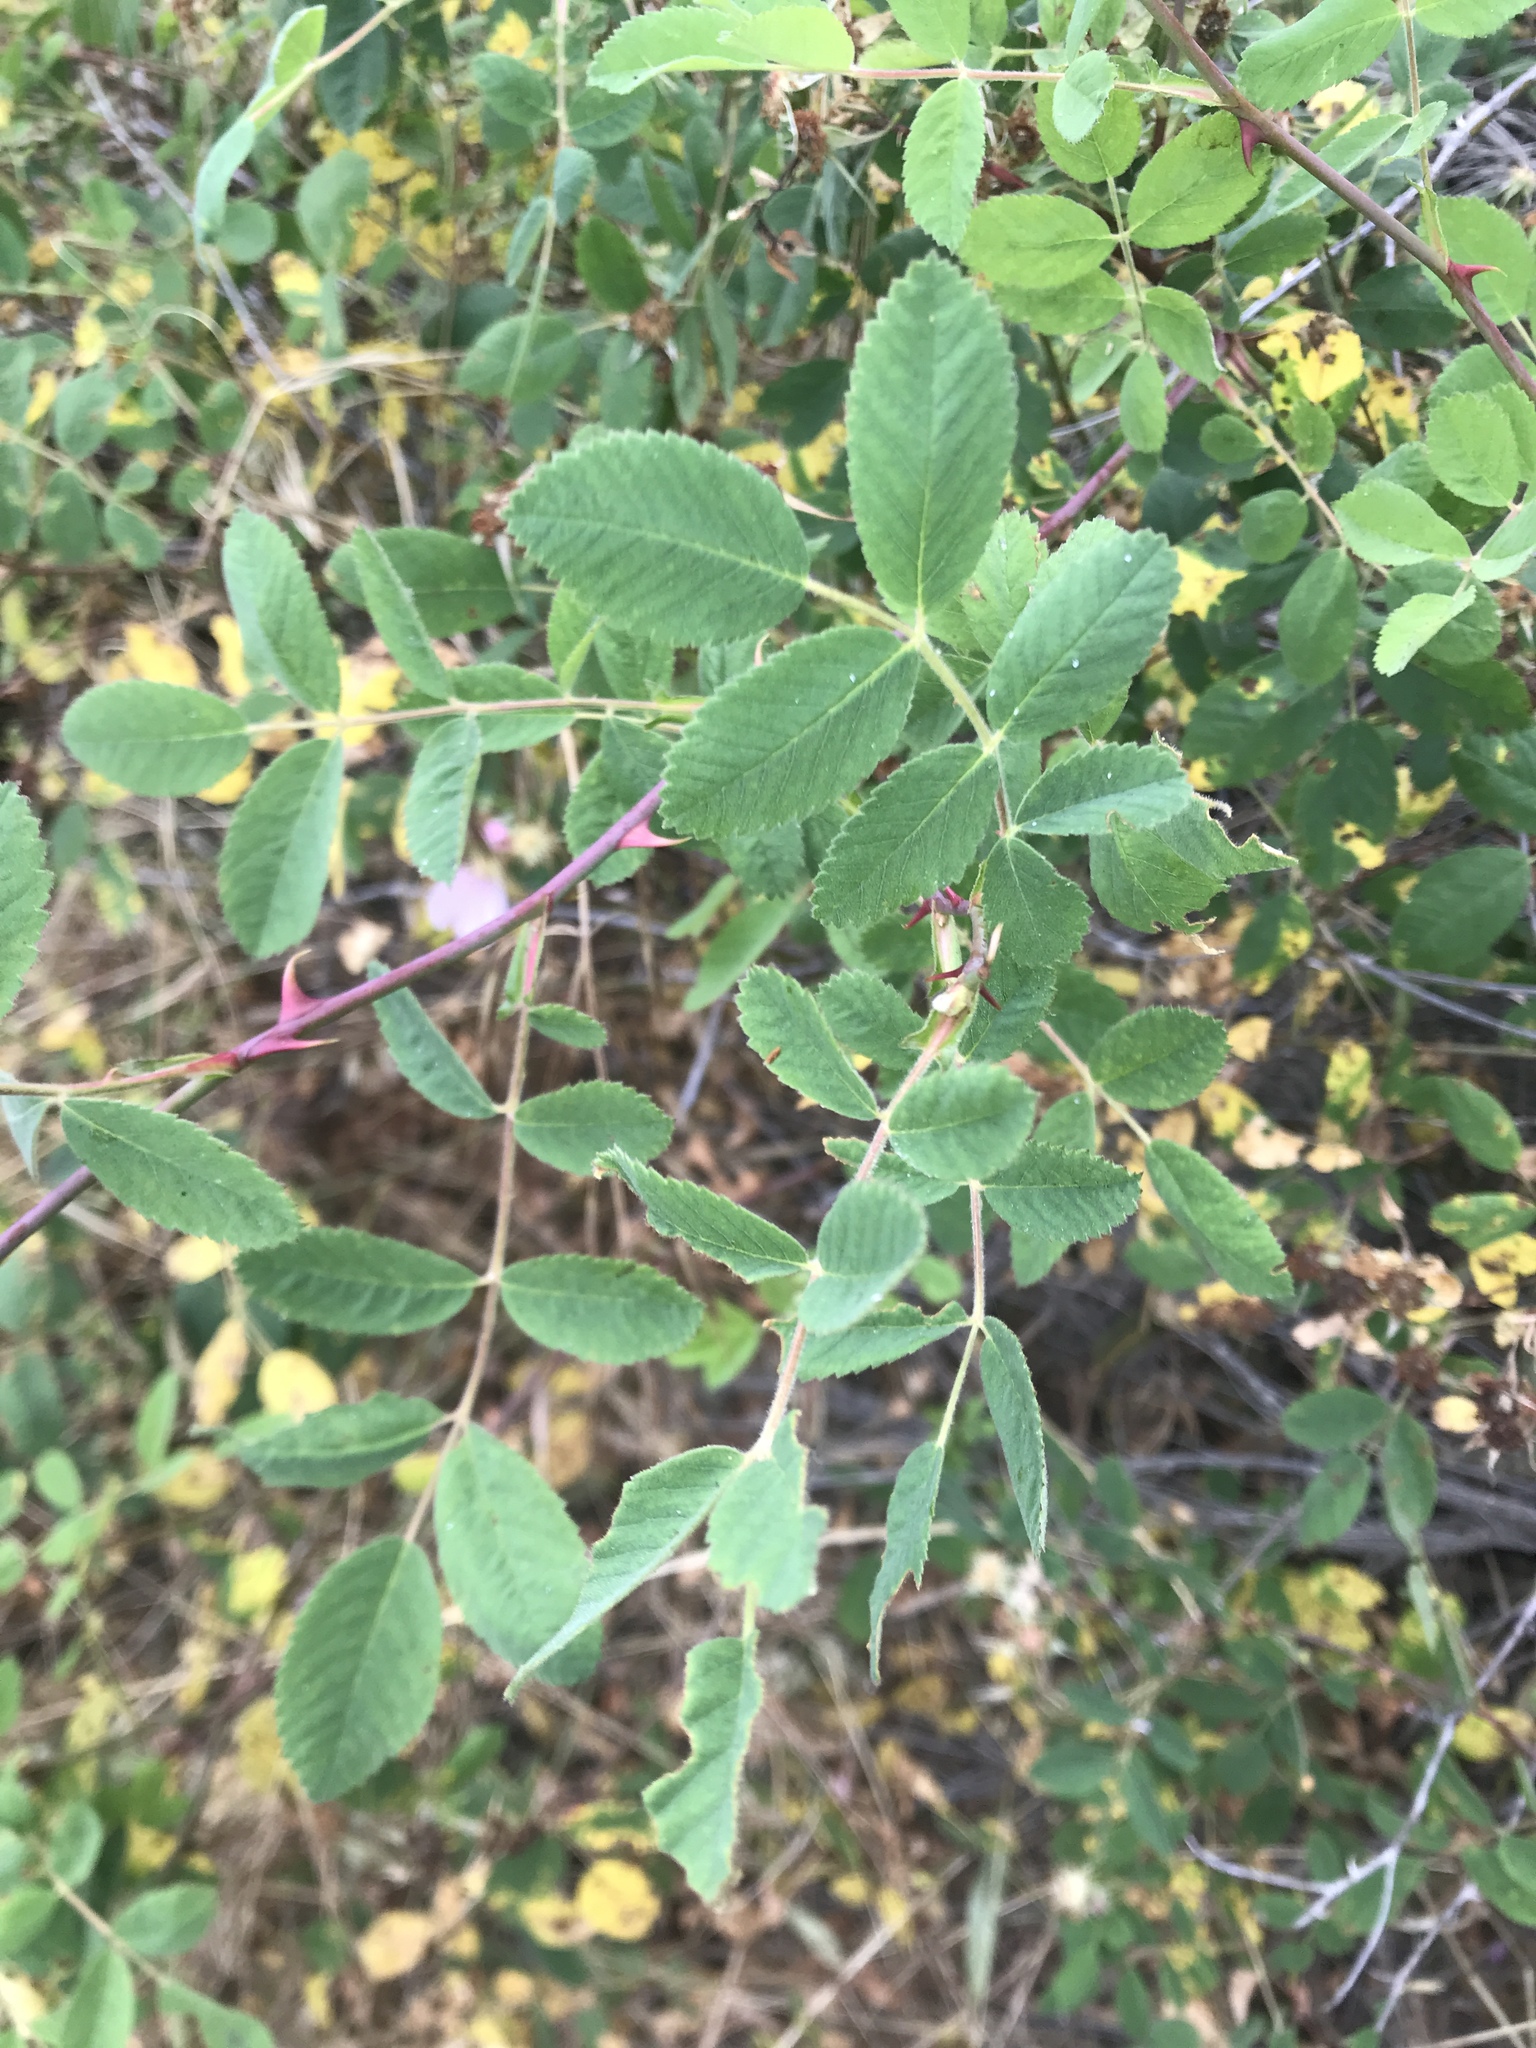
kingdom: Plantae
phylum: Tracheophyta
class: Magnoliopsida
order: Rosales
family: Rosaceae
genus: Rosa
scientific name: Rosa californica
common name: California rose
